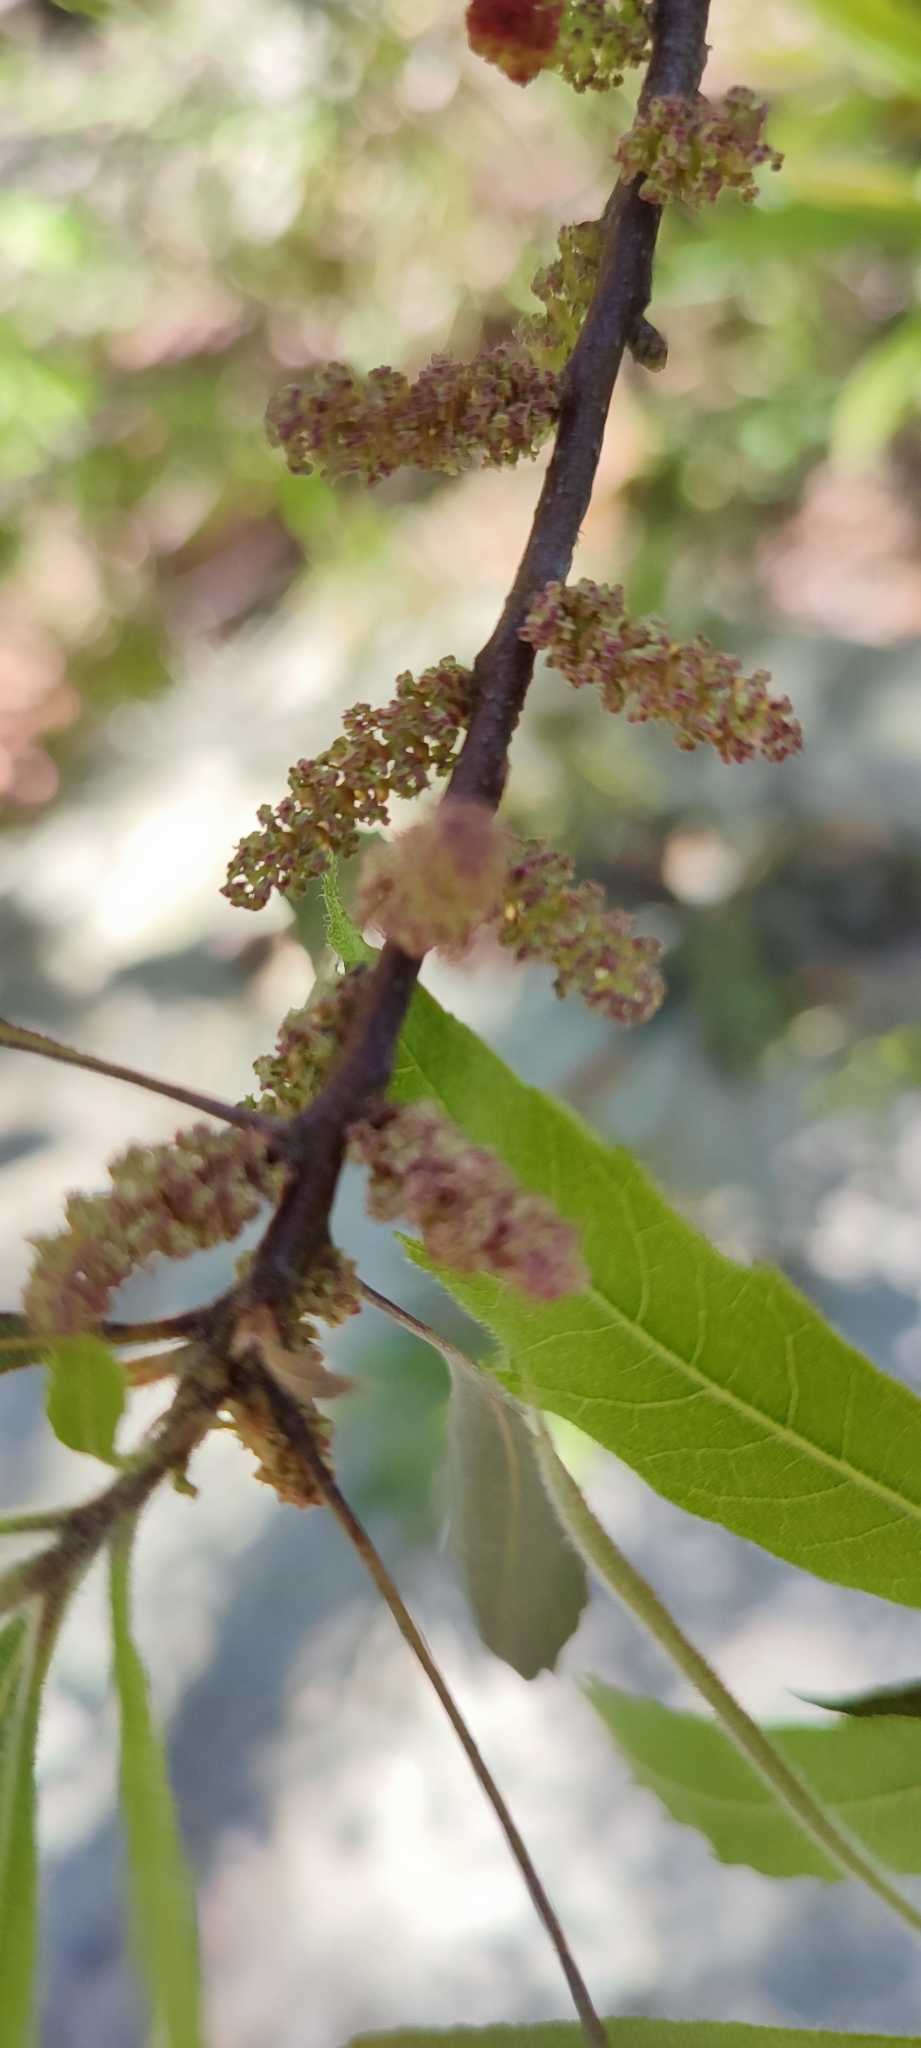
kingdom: Plantae
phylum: Tracheophyta
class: Magnoliopsida
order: Fagales
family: Myricaceae
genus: Morella
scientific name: Morella cerifera
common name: Wax myrtle
